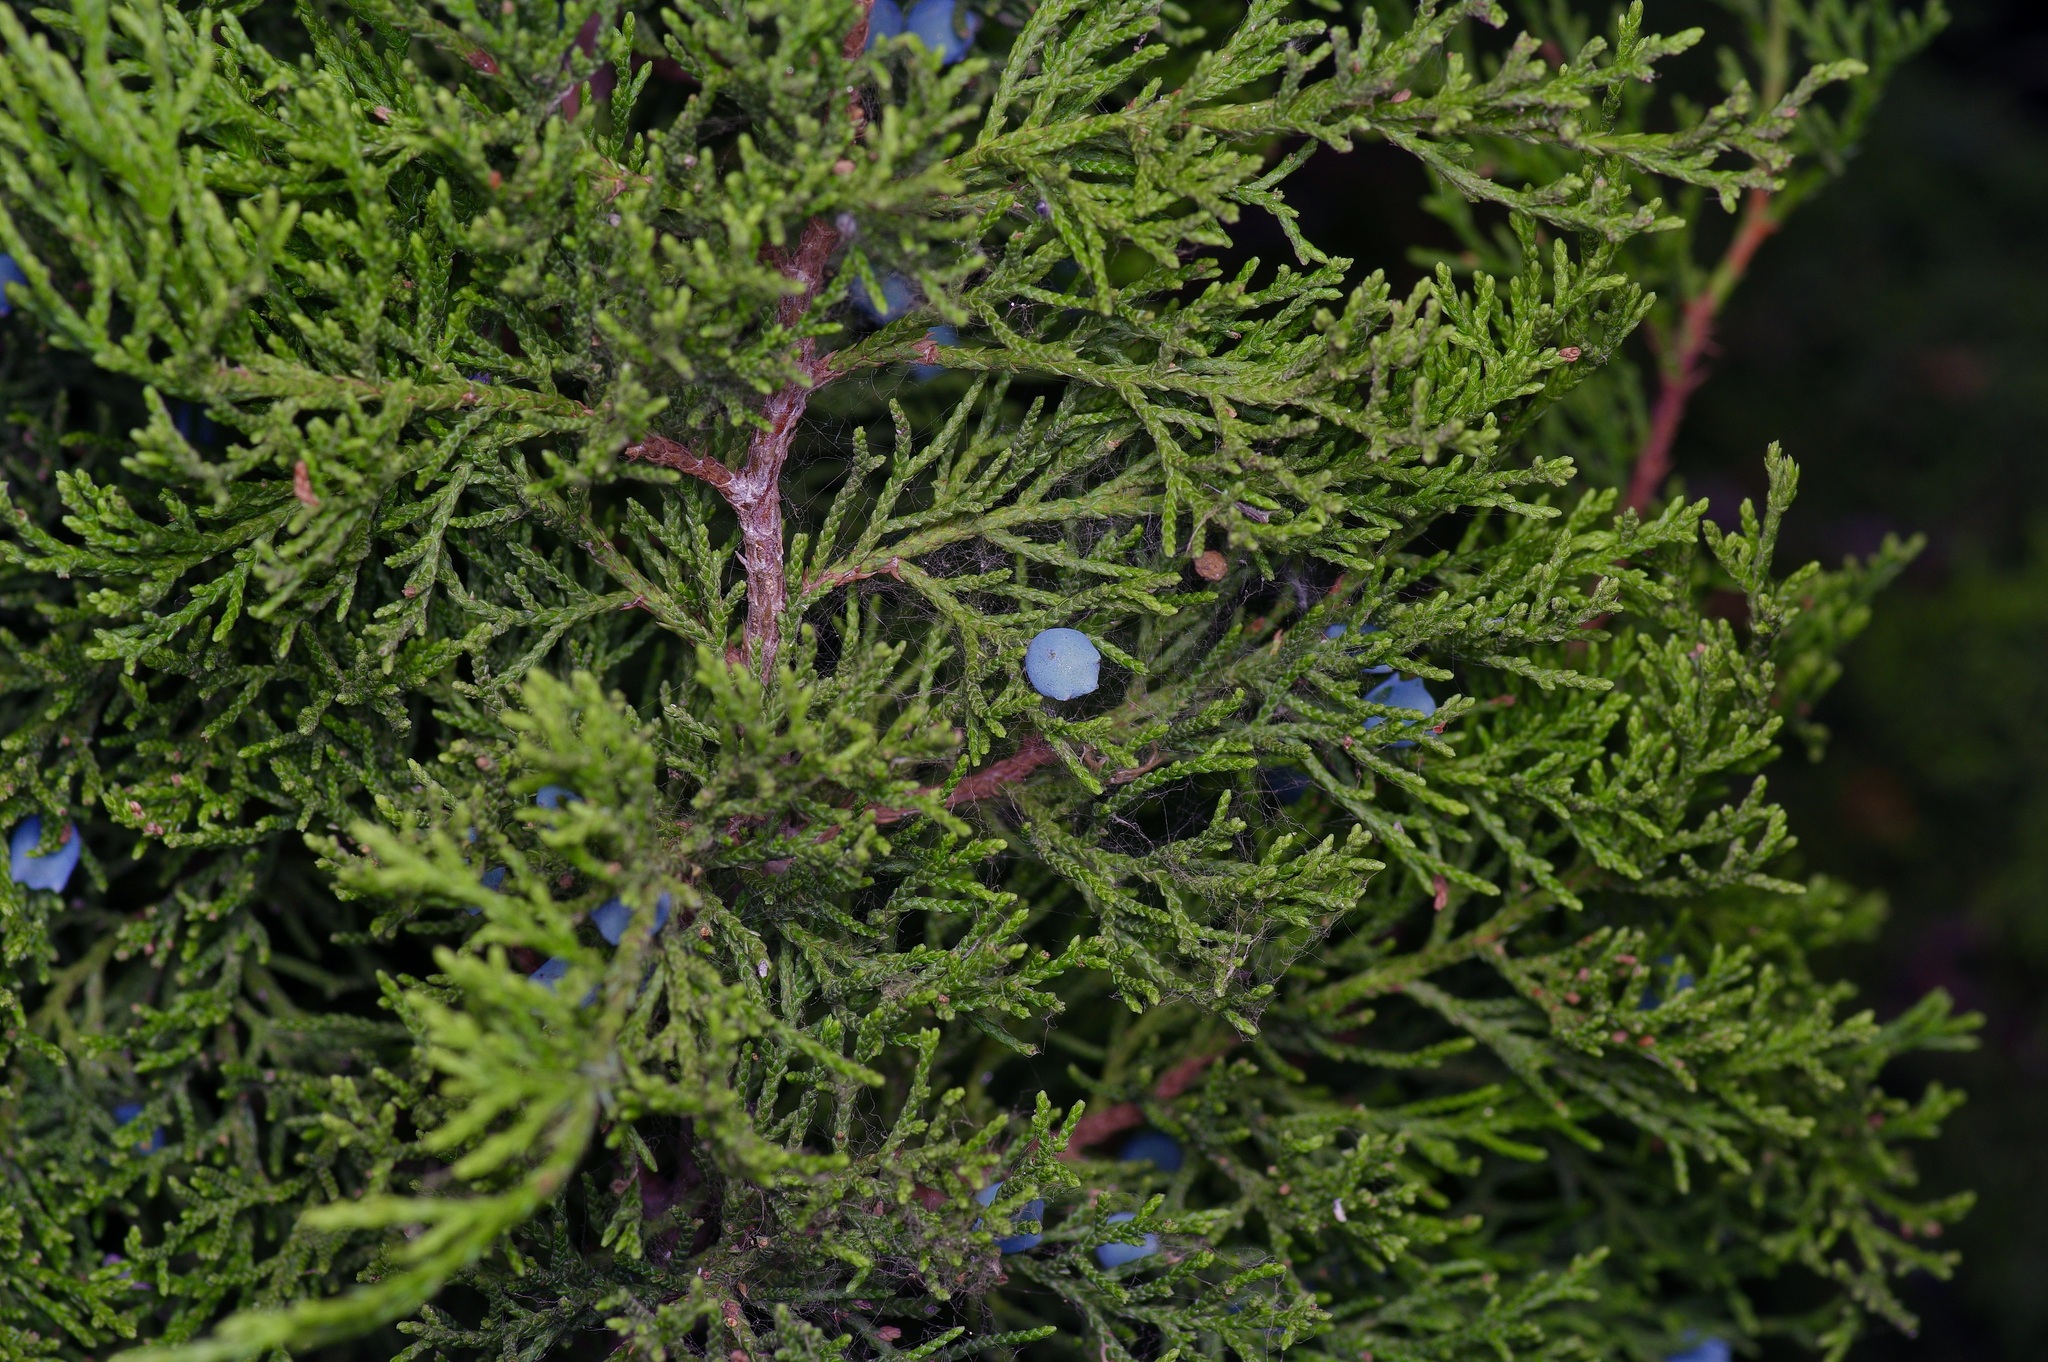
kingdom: Plantae
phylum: Tracheophyta
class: Pinopsida
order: Pinales
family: Cupressaceae
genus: Juniperus
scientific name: Juniperus ashei
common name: Mexican juniper
